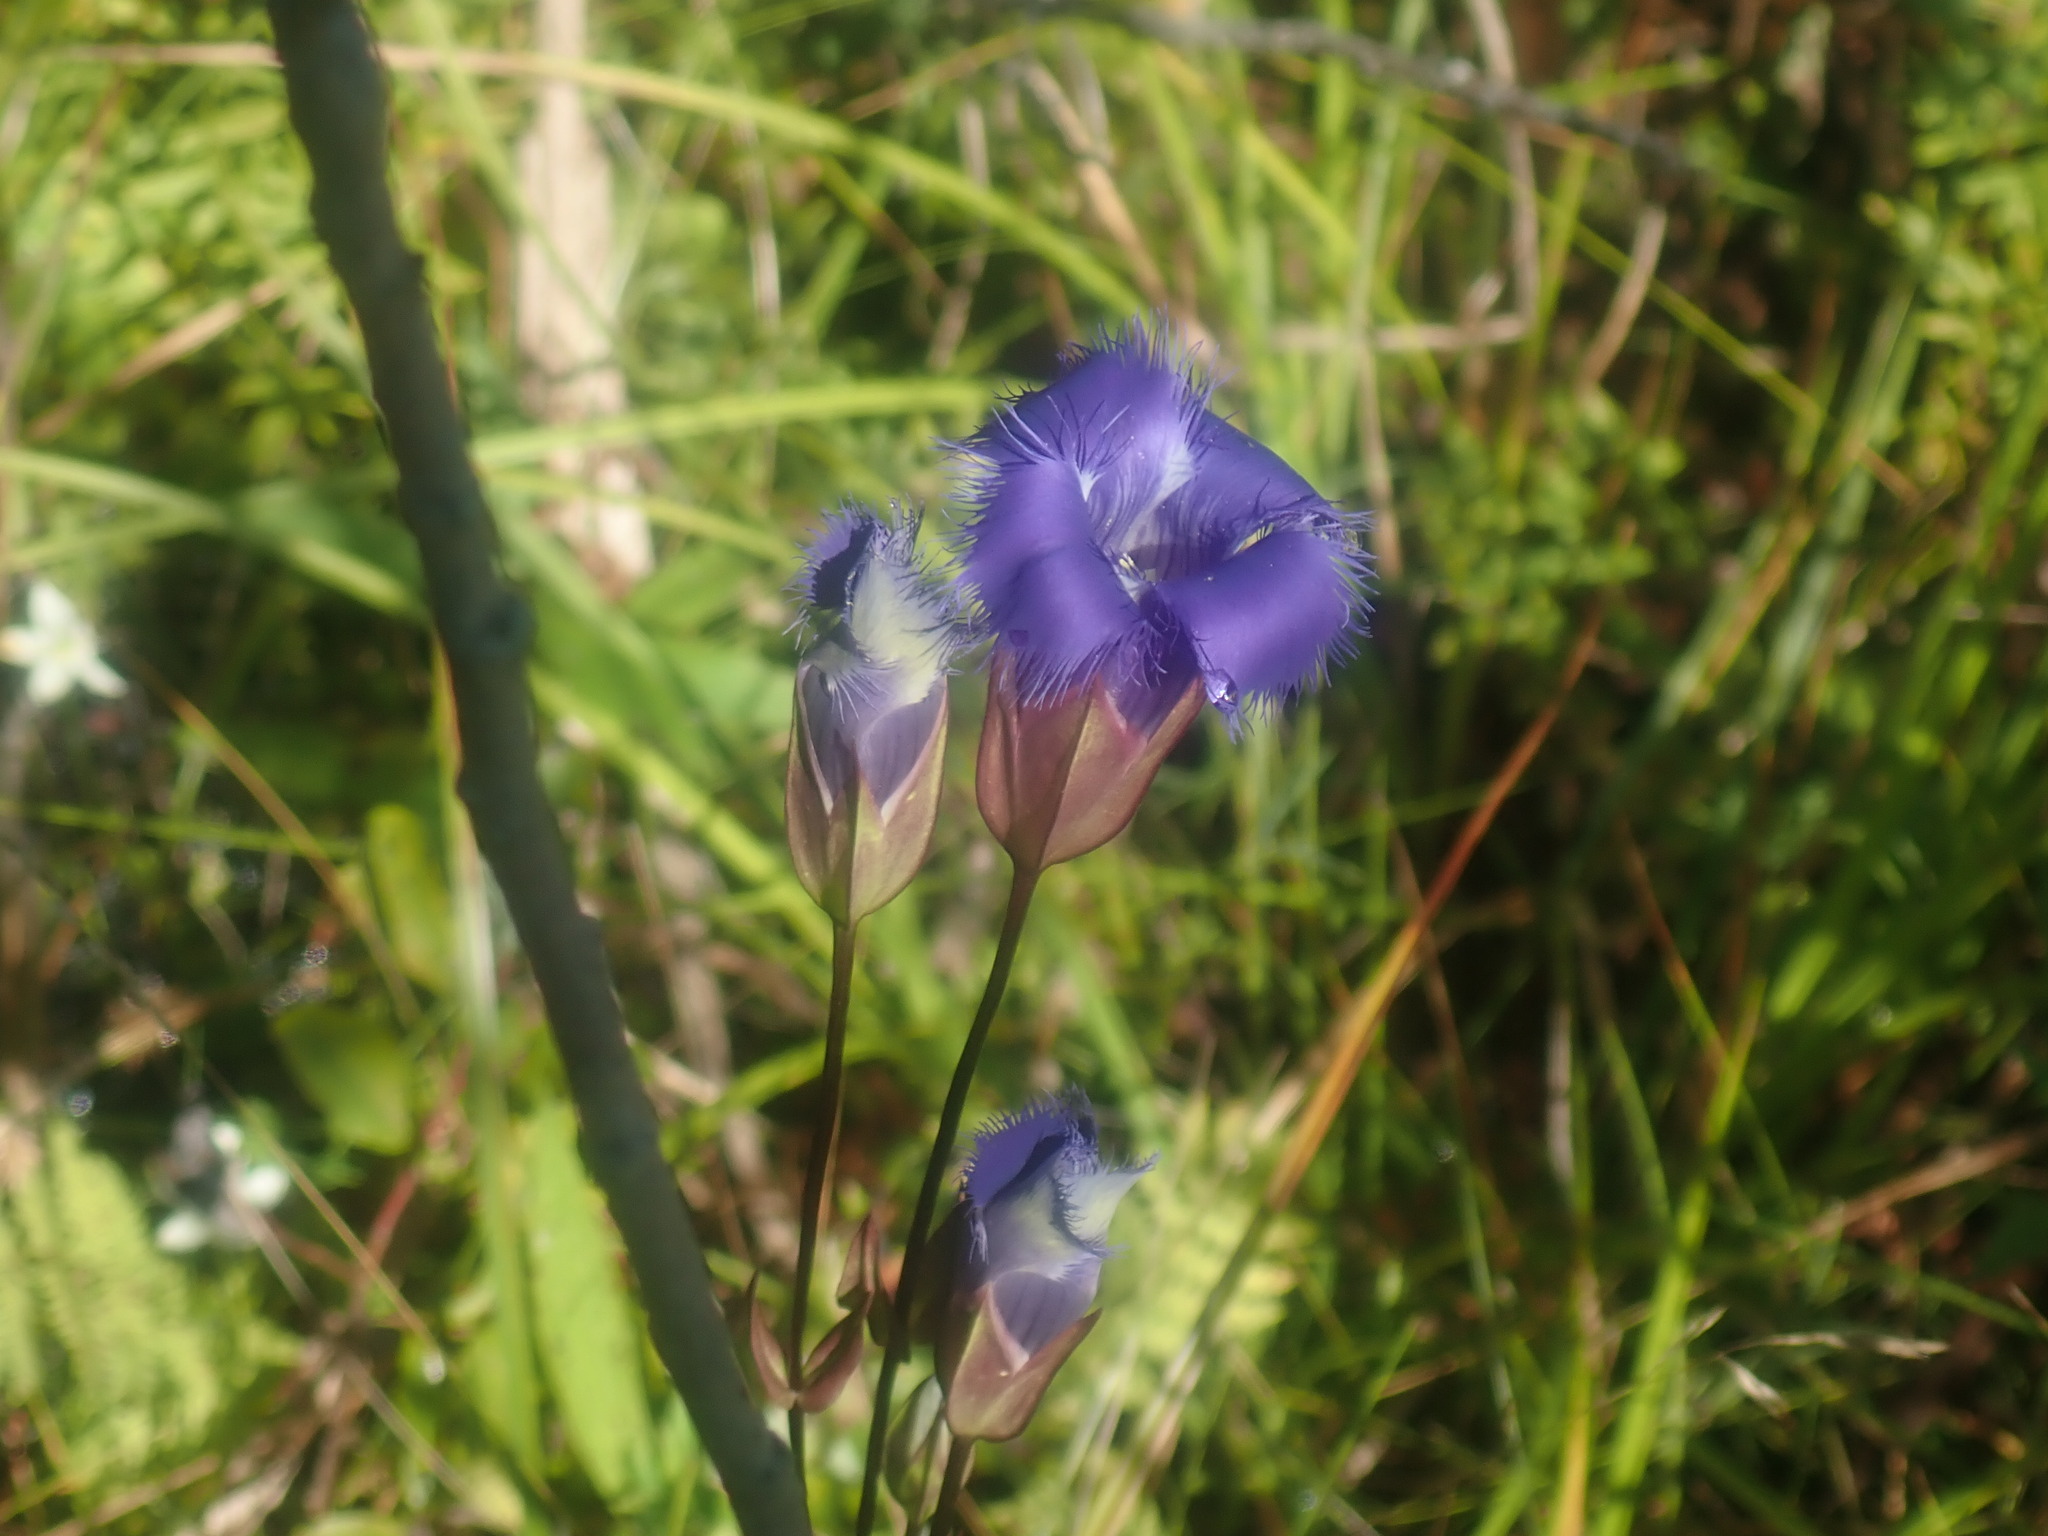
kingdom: Plantae
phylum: Tracheophyta
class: Magnoliopsida
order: Gentianales
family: Gentianaceae
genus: Gentianopsis
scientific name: Gentianopsis crinita
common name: Fringed-gentian
